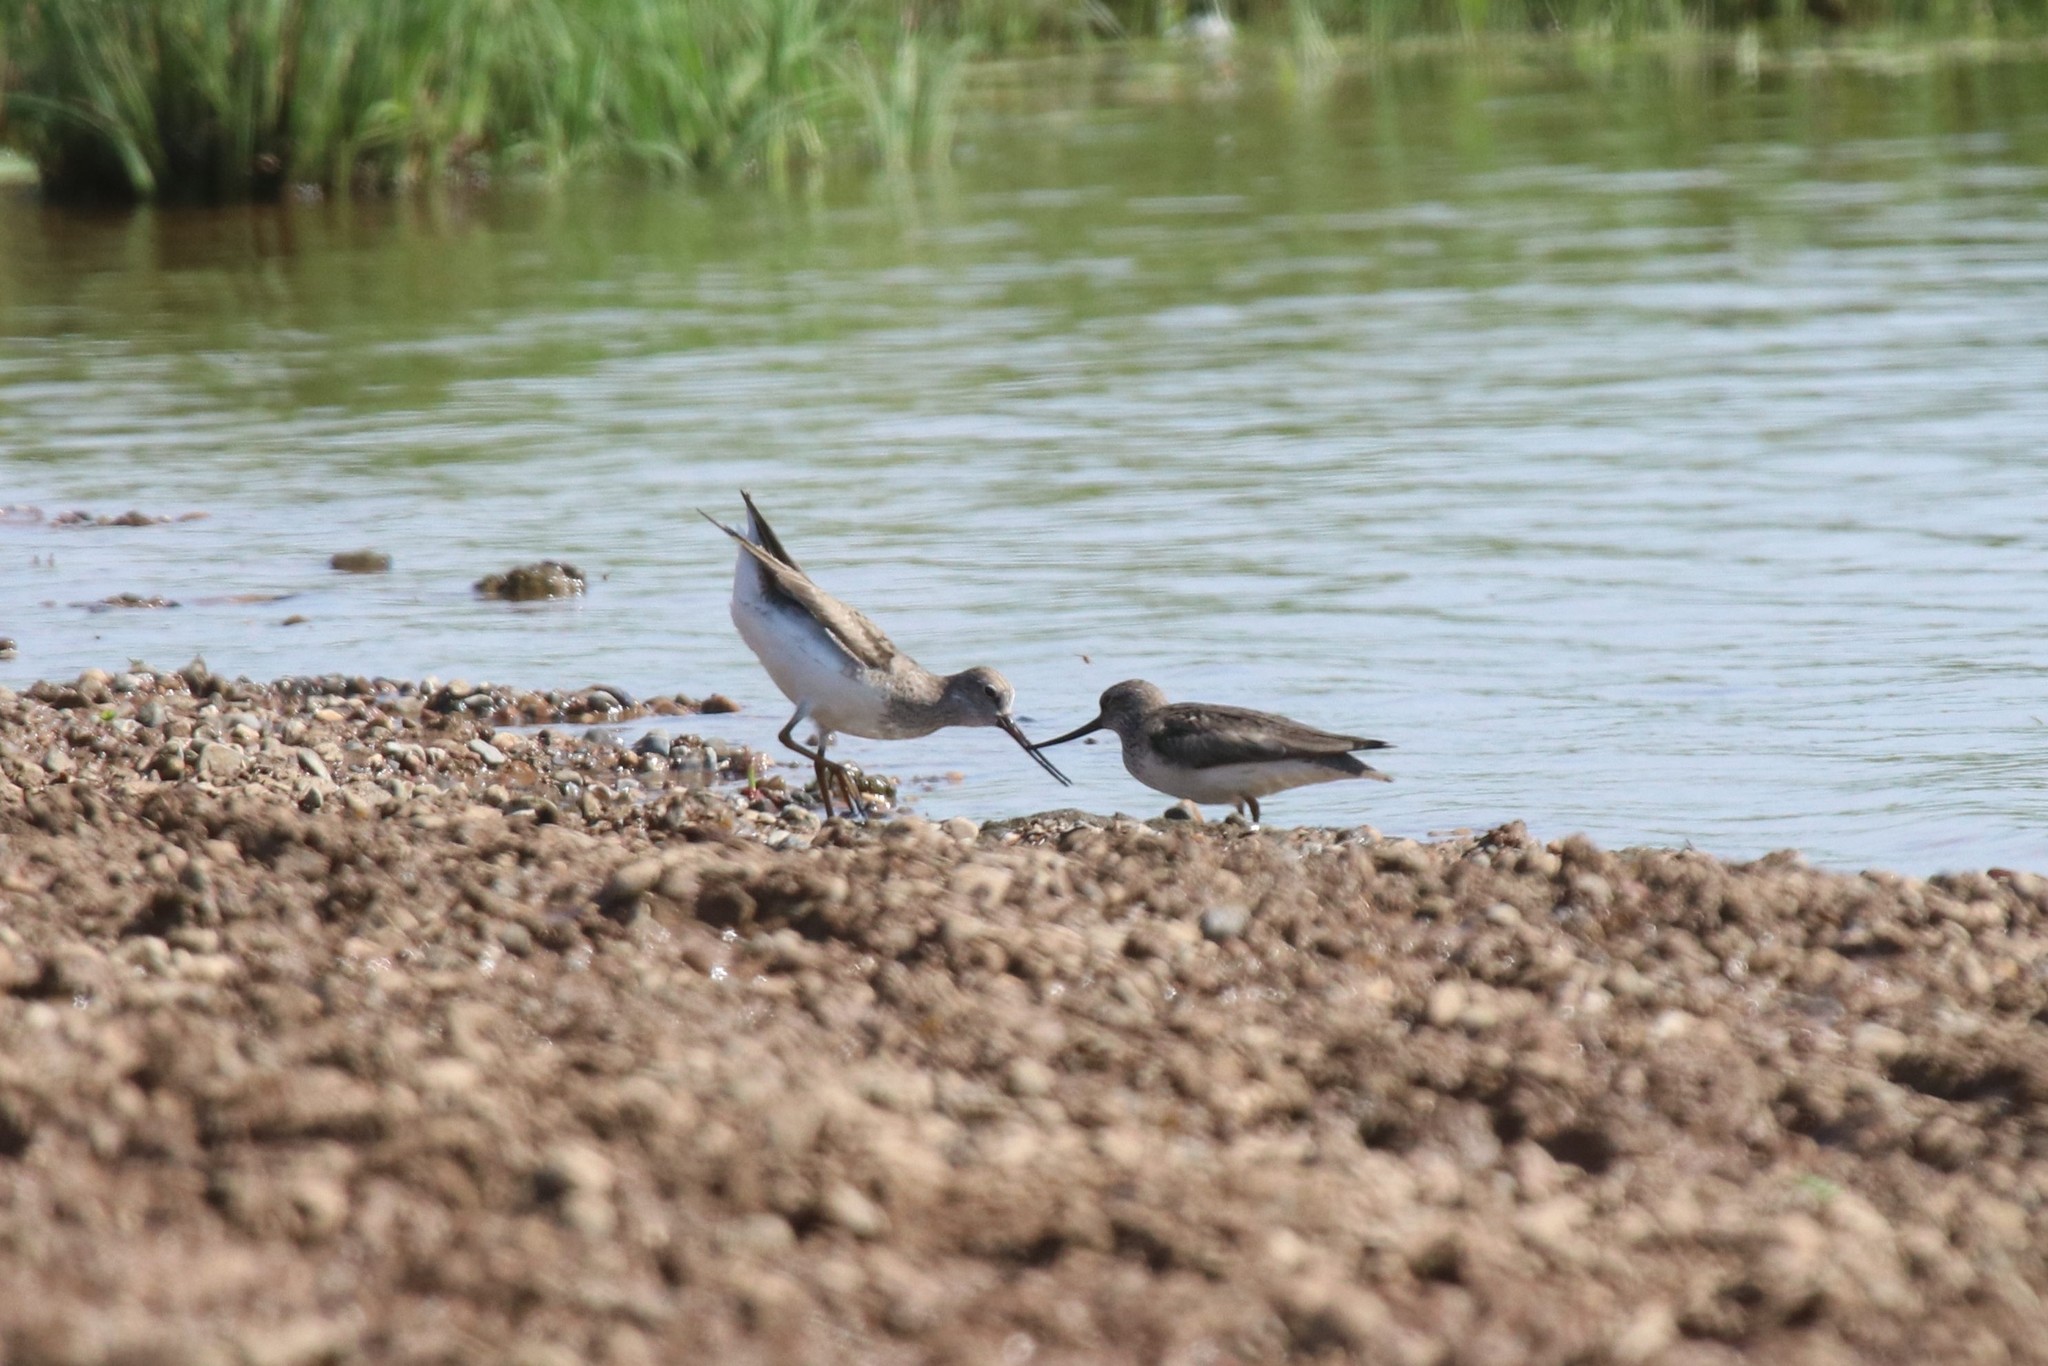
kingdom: Animalia
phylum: Chordata
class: Aves
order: Charadriiformes
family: Scolopacidae
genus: Xenus
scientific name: Xenus cinereus
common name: Terek sandpiper
